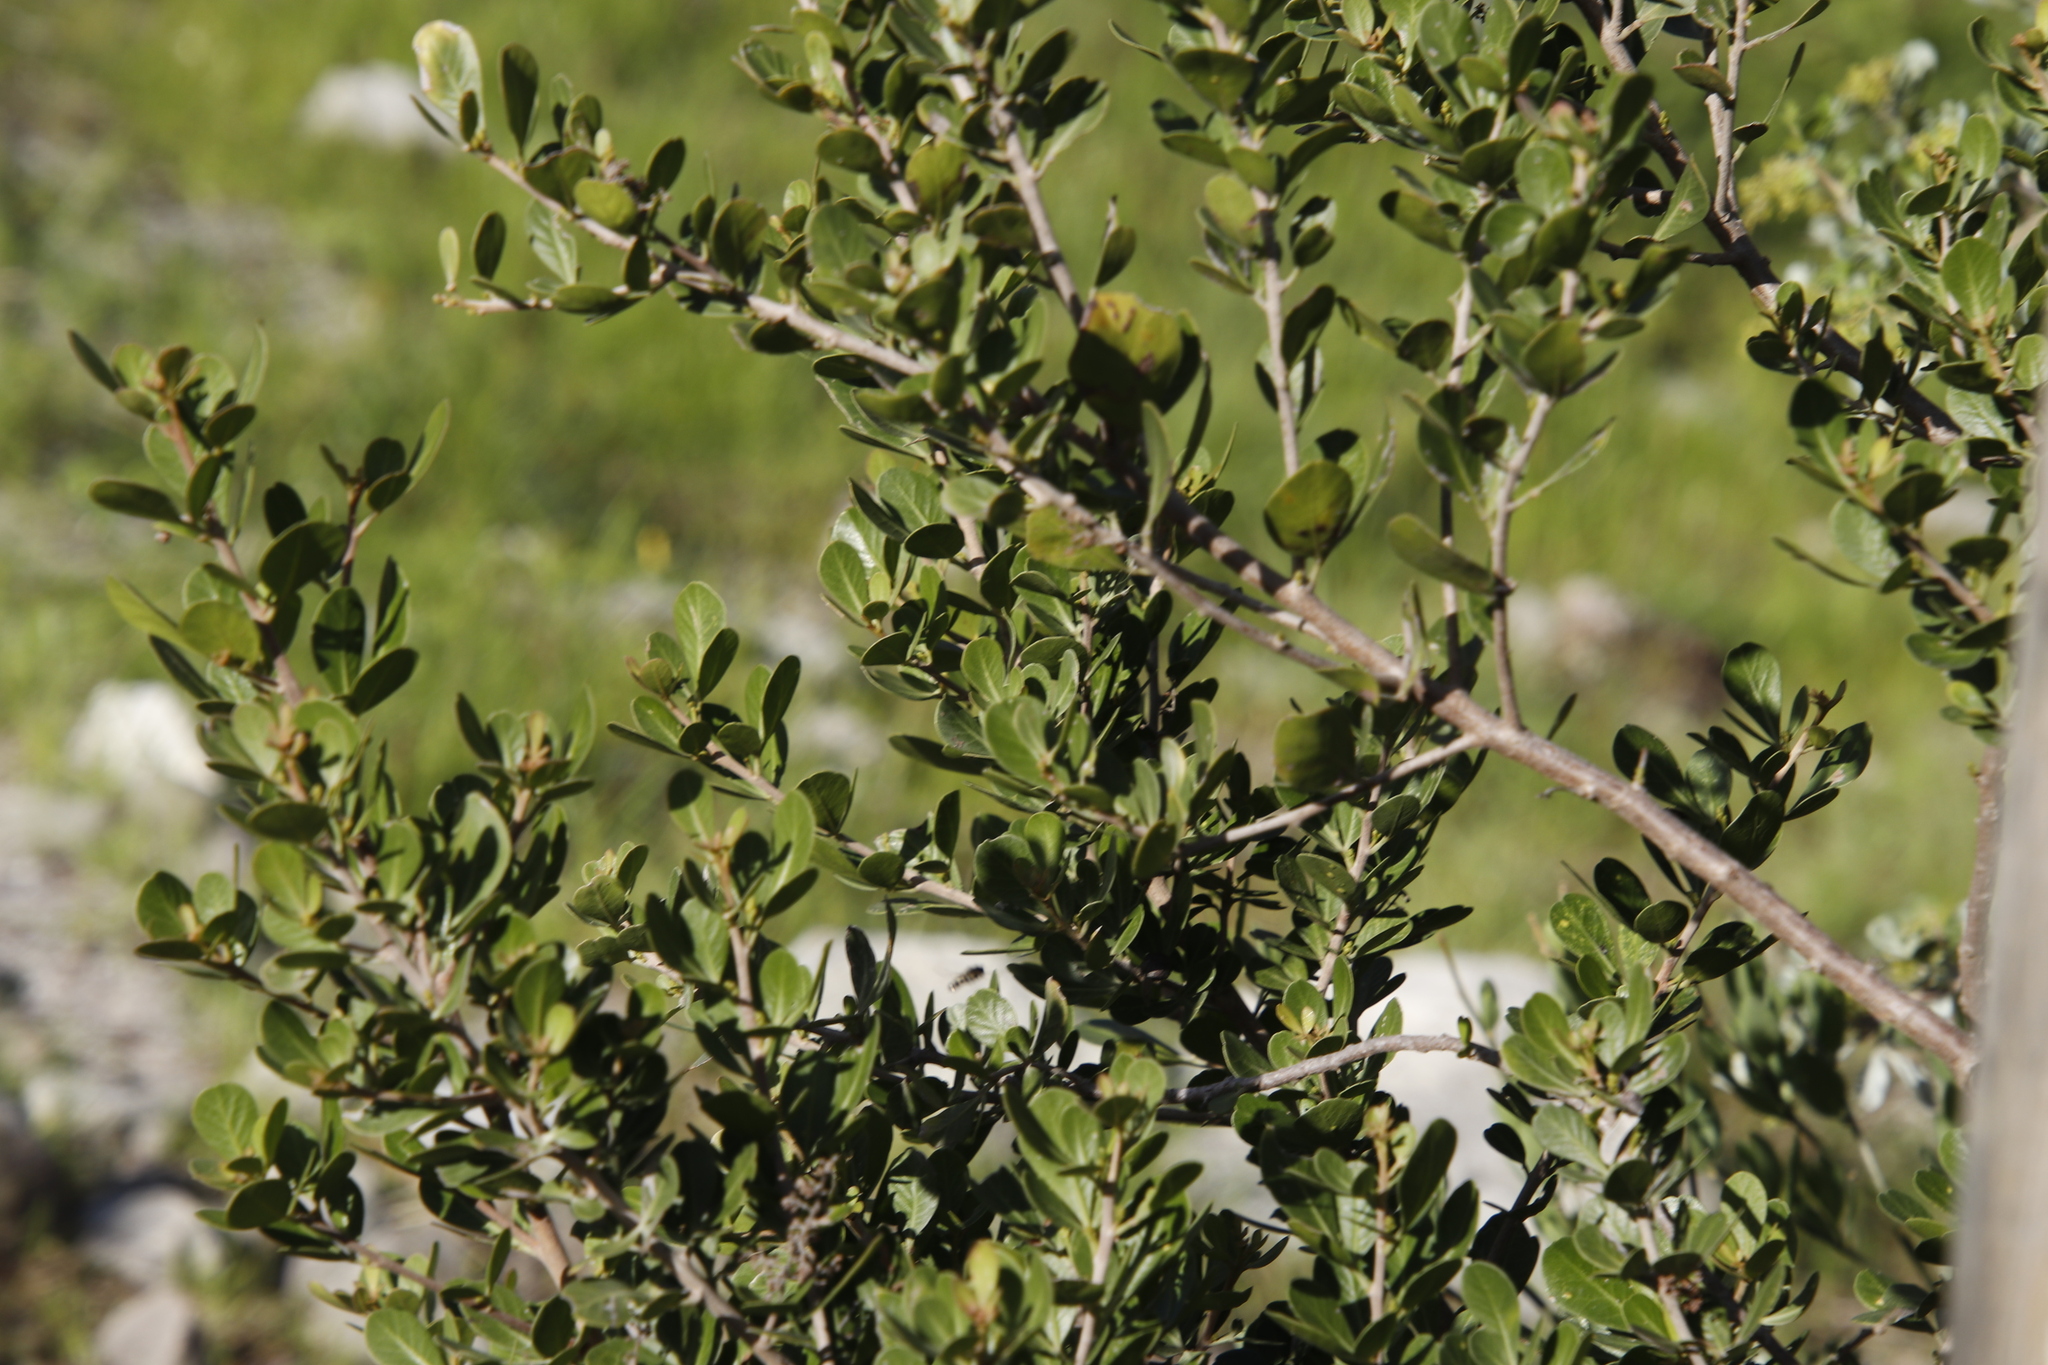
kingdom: Plantae
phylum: Tracheophyta
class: Magnoliopsida
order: Sapindales
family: Anacardiaceae
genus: Searsia
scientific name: Searsia lucida
